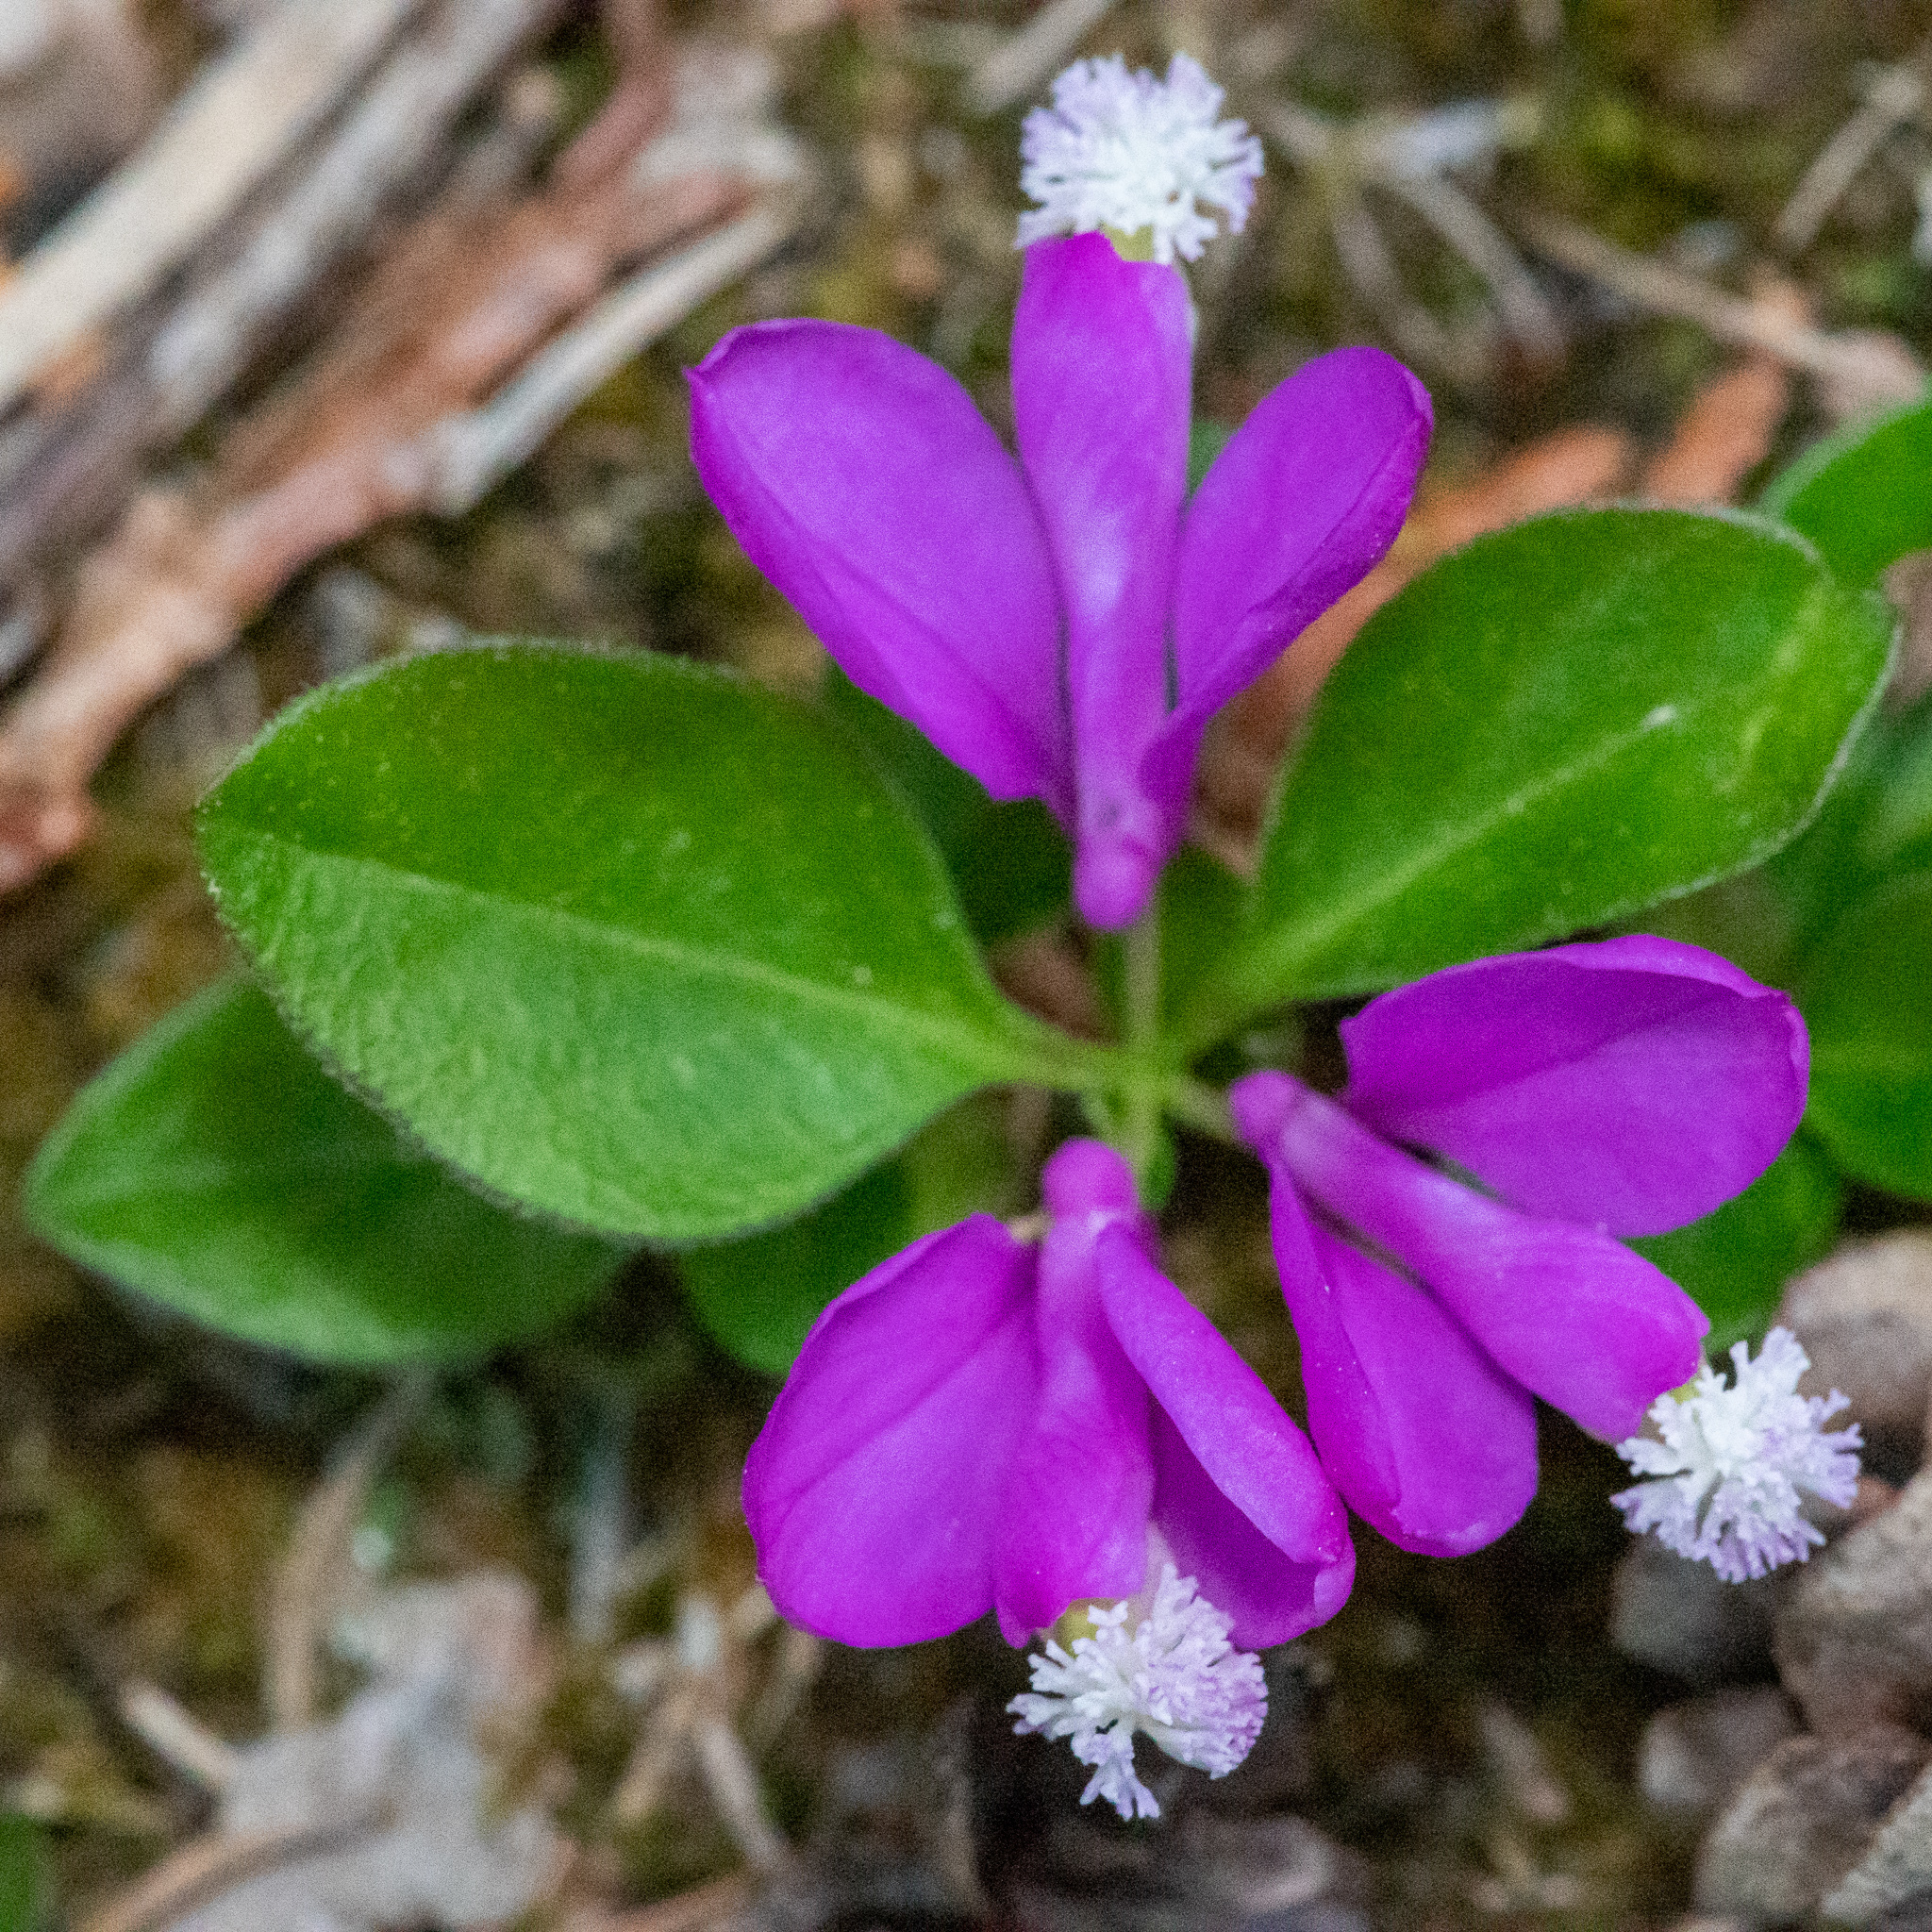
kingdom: Plantae
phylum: Tracheophyta
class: Magnoliopsida
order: Fabales
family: Polygalaceae
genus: Polygaloides
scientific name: Polygaloides paucifolia
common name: Bird-on-the-wing
